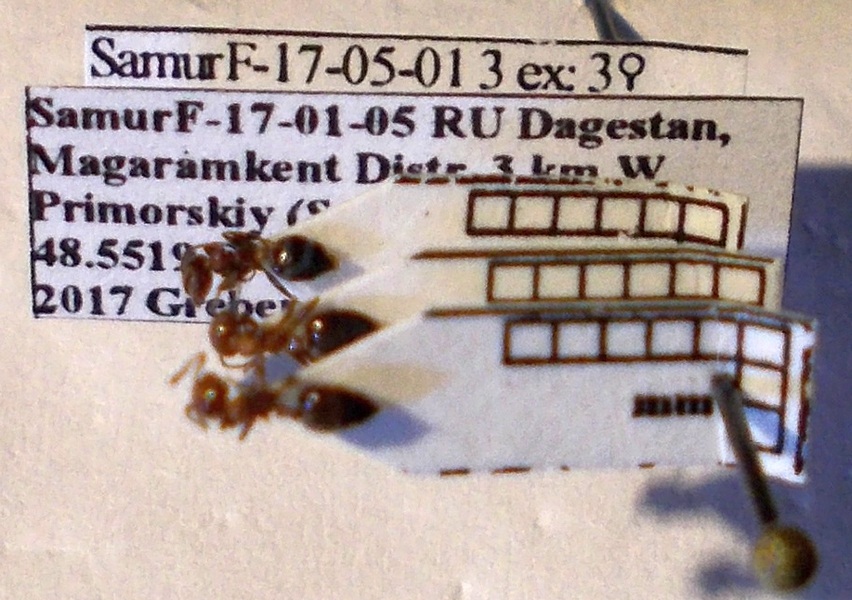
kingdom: Animalia
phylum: Arthropoda
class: Insecta
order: Hymenoptera
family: Formicidae
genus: Crematogaster
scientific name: Crematogaster schmidti
